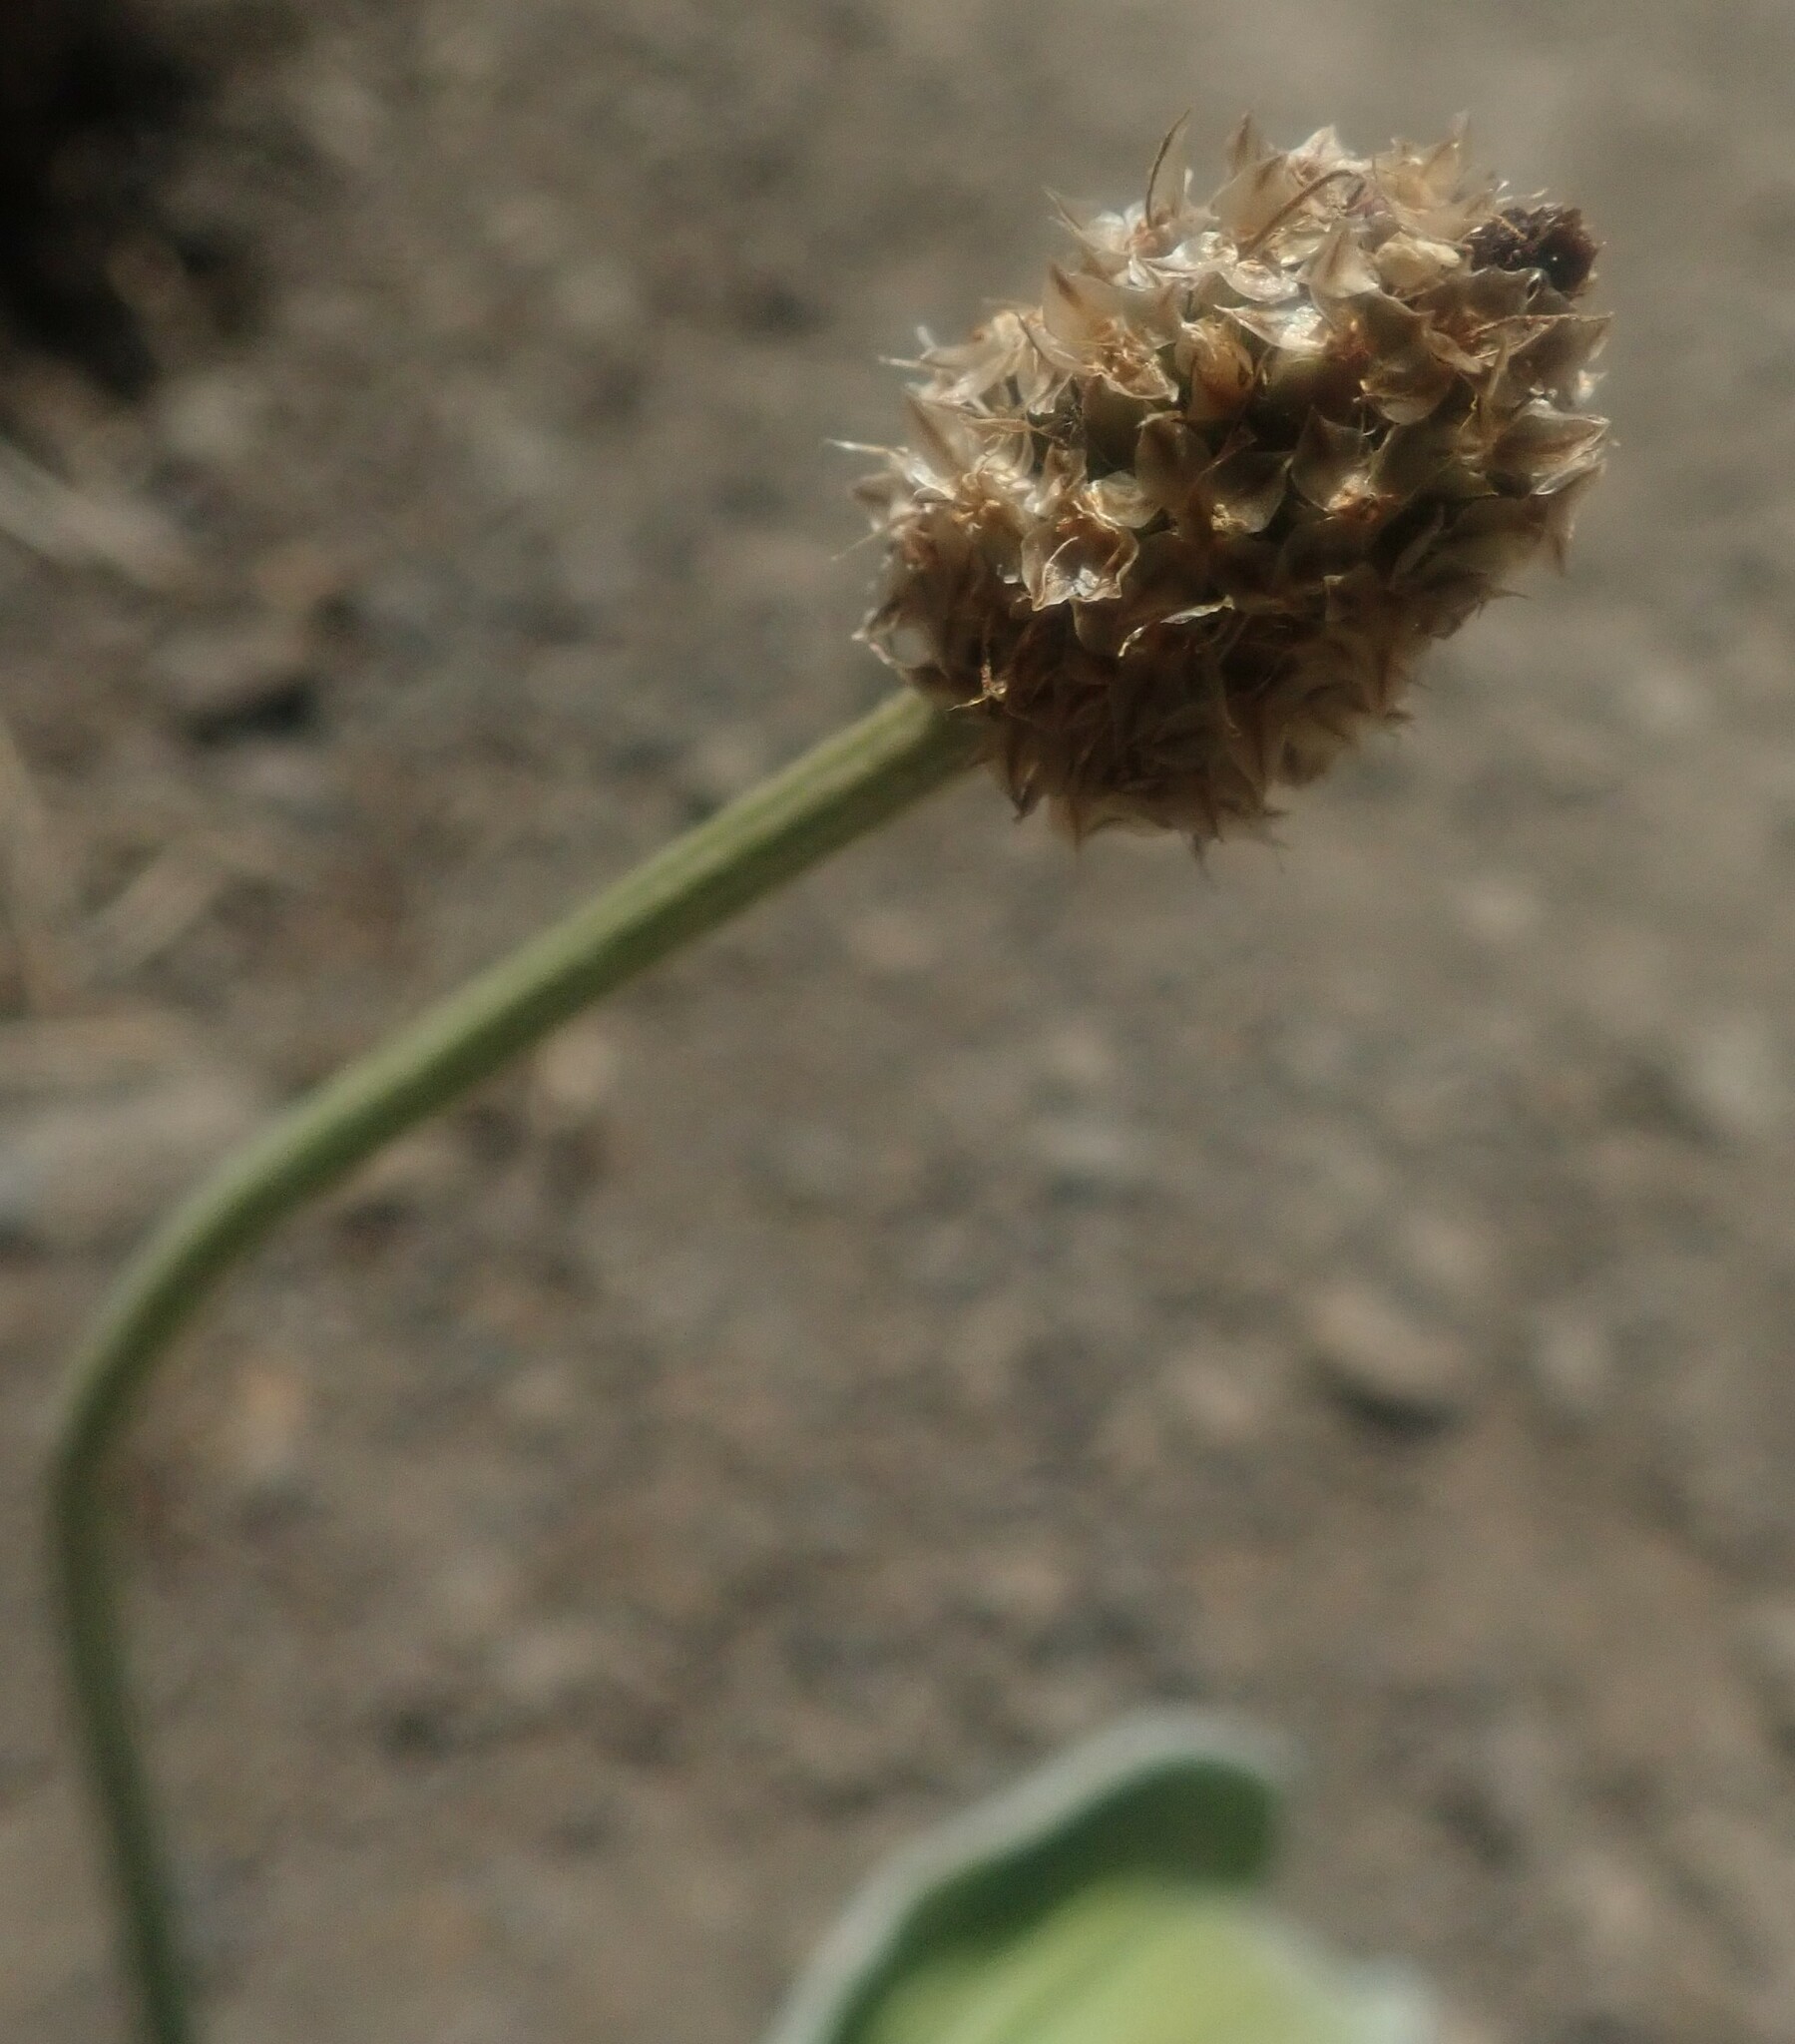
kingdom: Plantae
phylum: Tracheophyta
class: Magnoliopsida
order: Lamiales
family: Plantaginaceae
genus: Plantago
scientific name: Plantago malato-belizii
